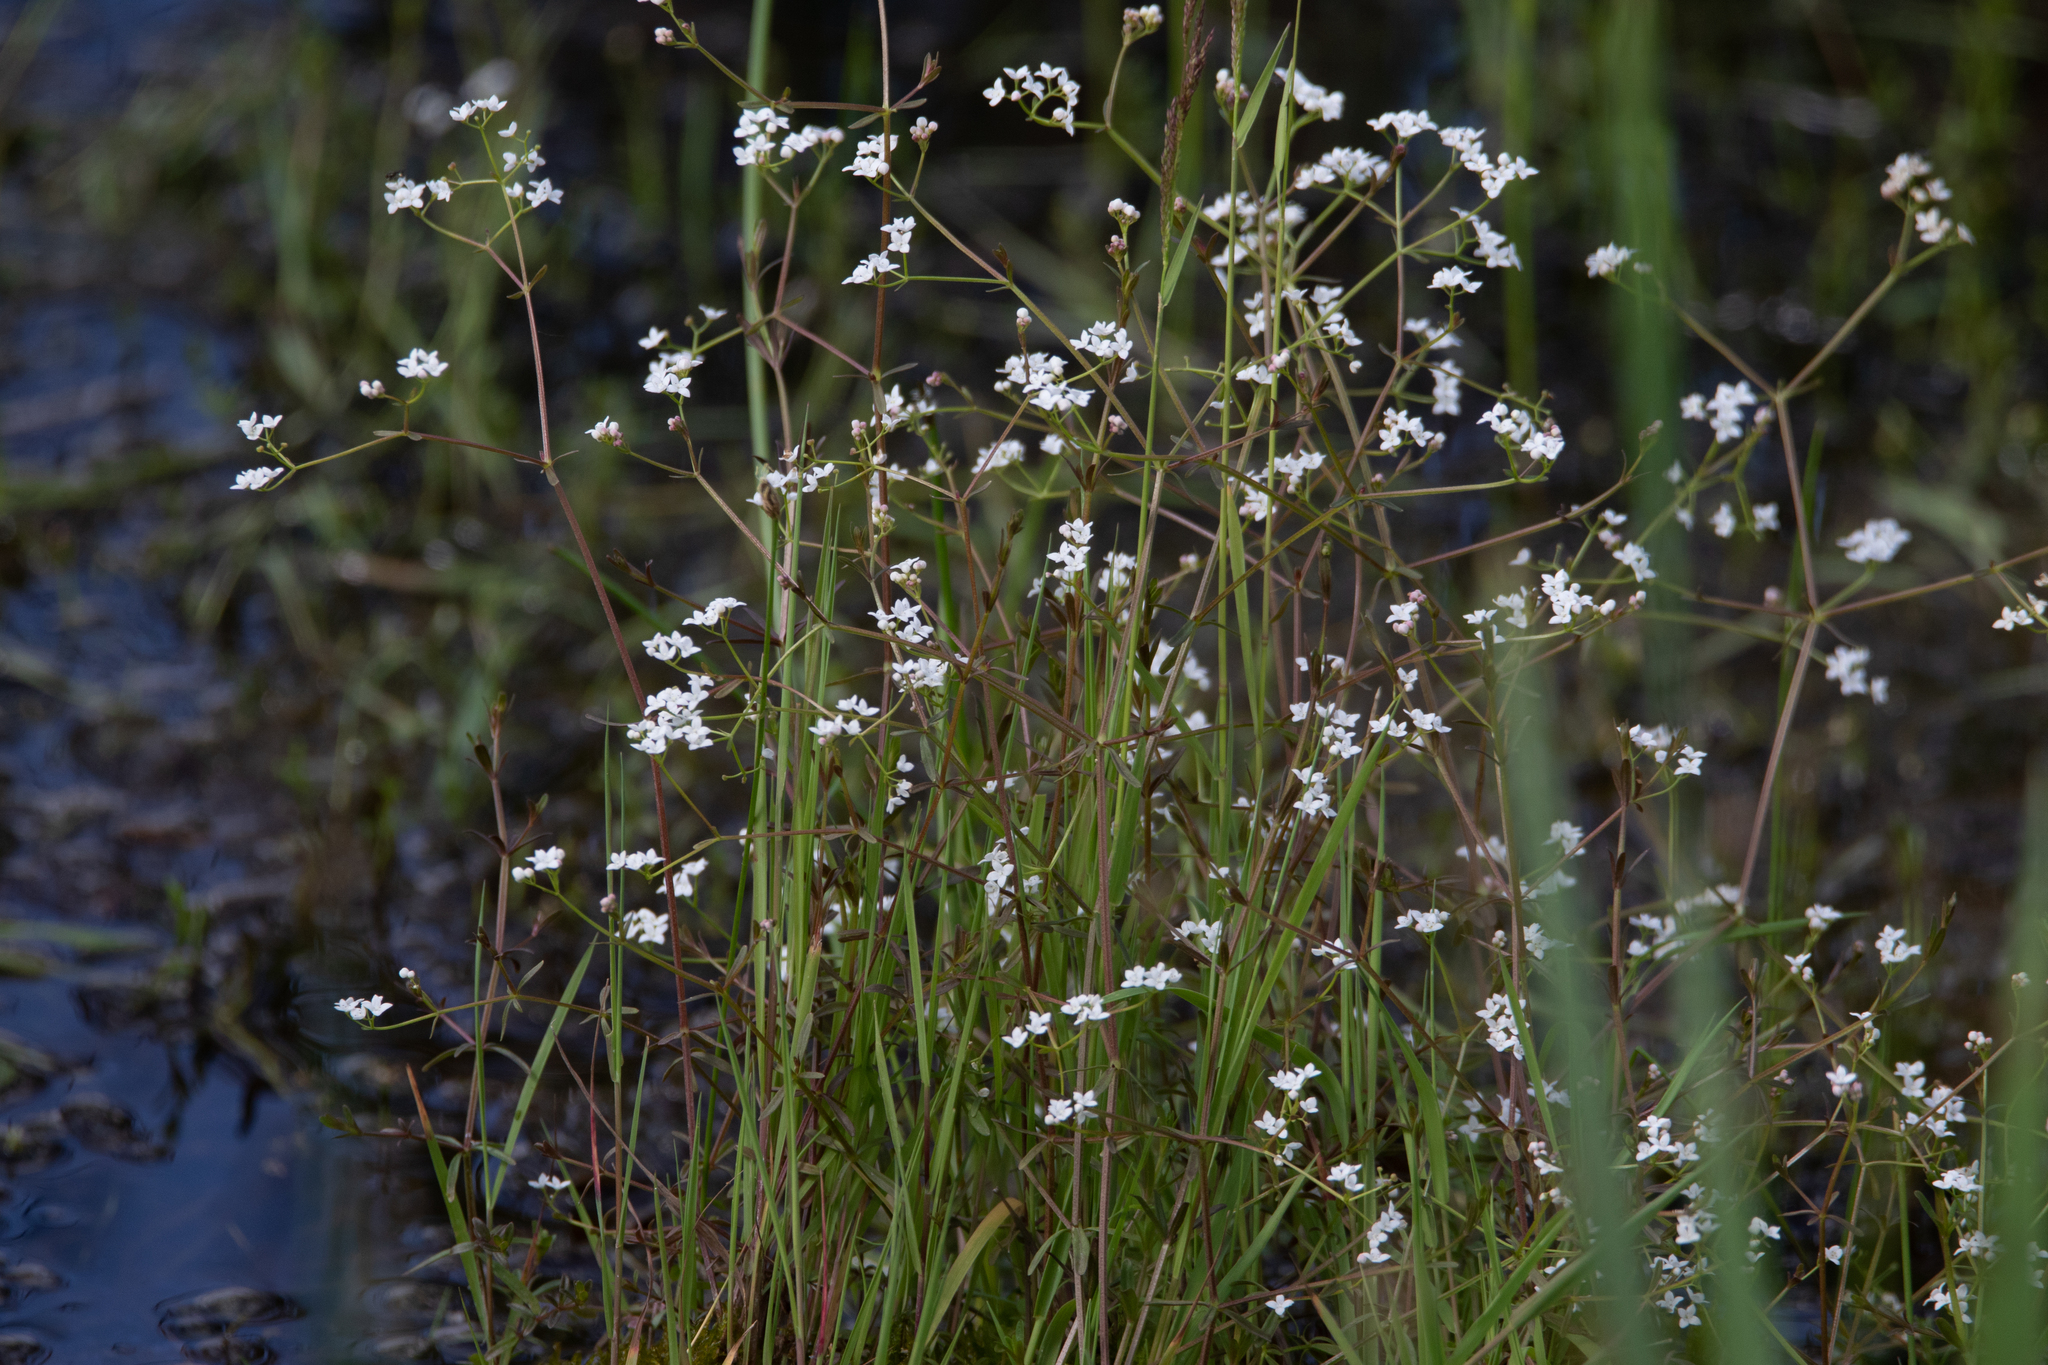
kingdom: Plantae
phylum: Tracheophyta
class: Magnoliopsida
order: Gentianales
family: Rubiaceae
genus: Galium
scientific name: Galium palustre
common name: Common marsh-bedstraw
